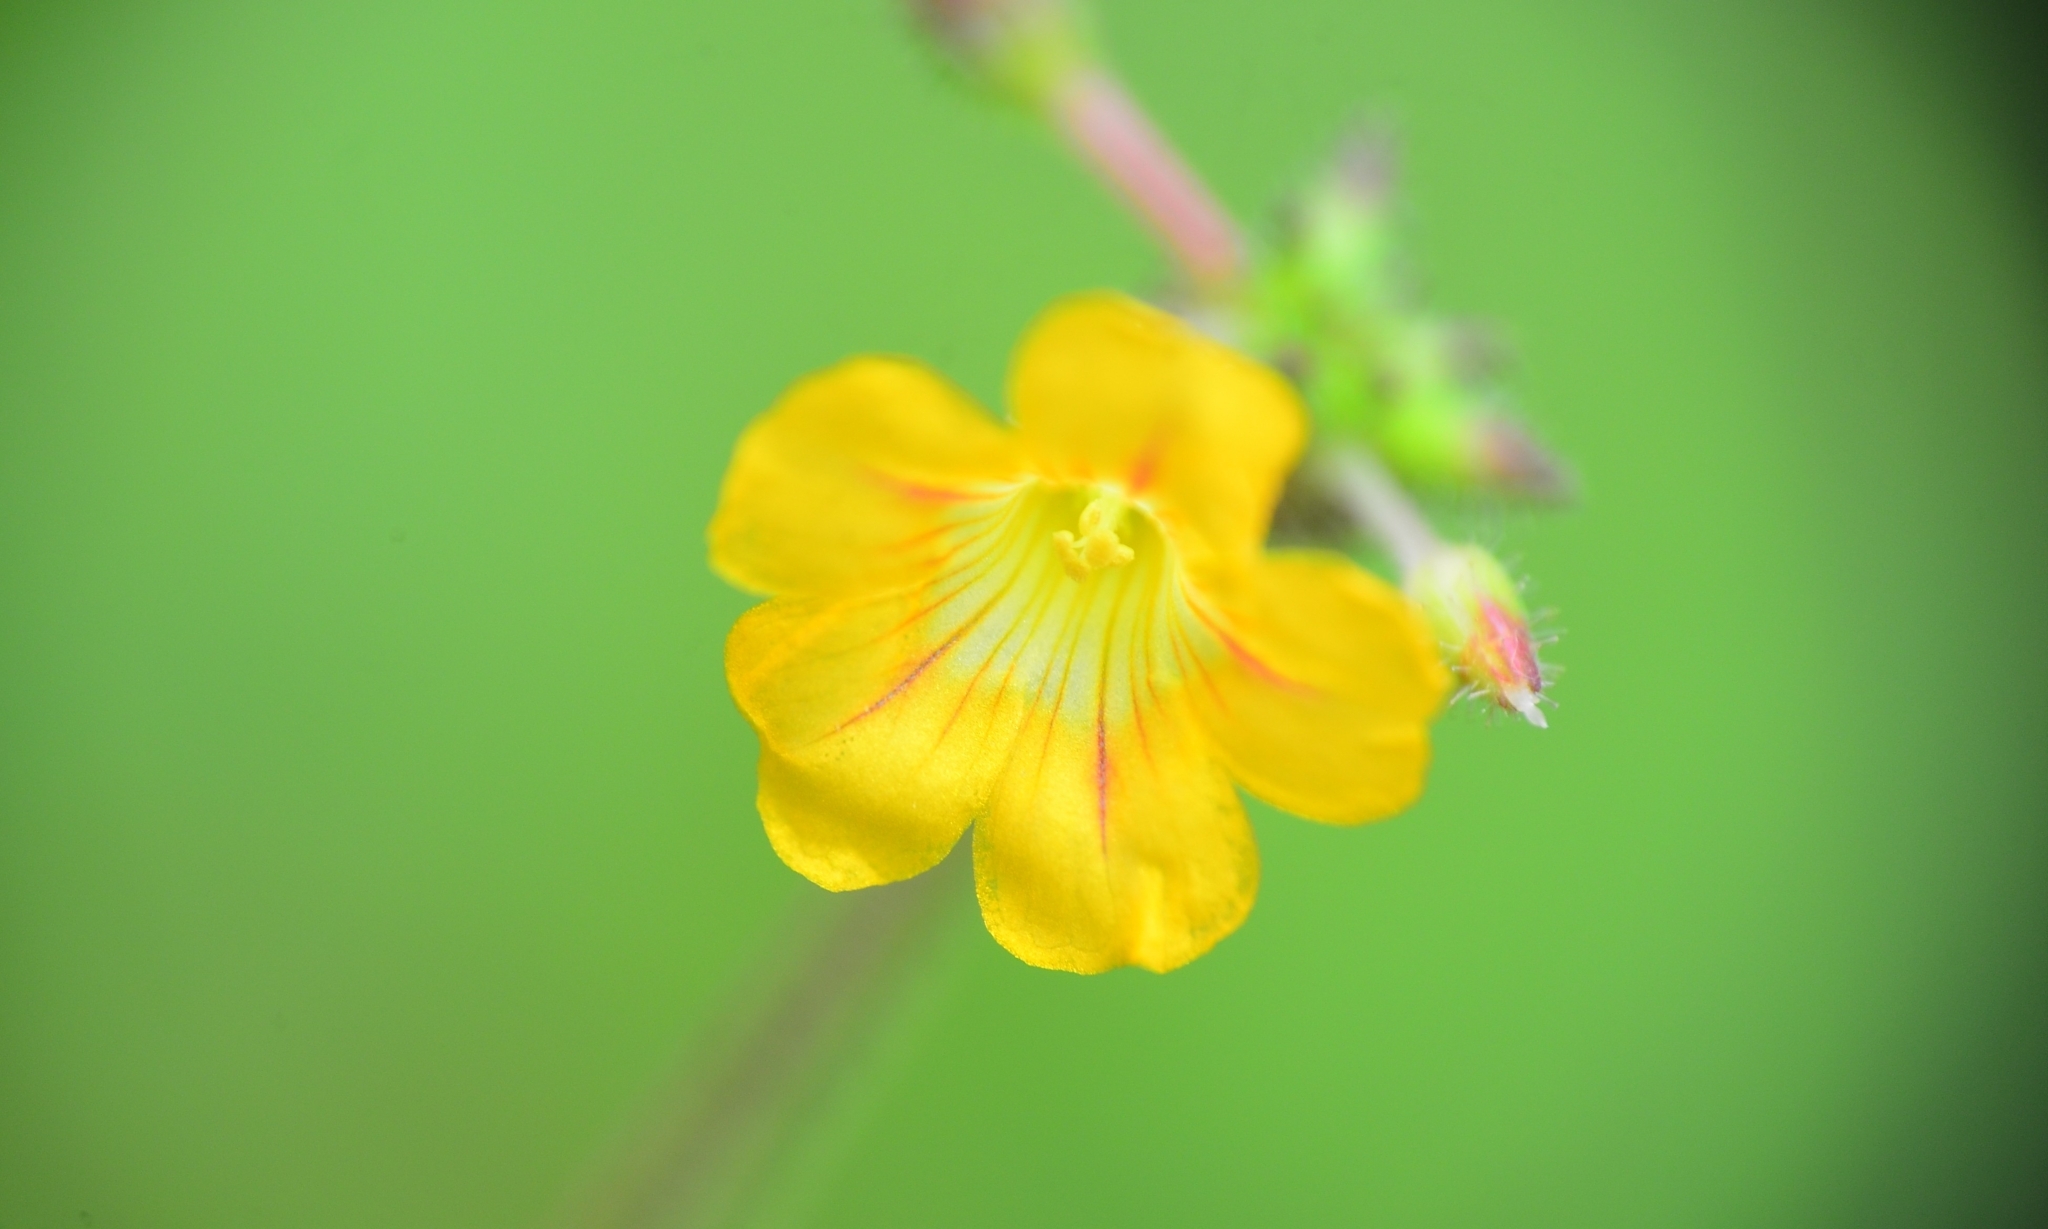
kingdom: Plantae
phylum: Tracheophyta
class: Magnoliopsida
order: Oxalidales
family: Oxalidaceae
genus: Biophytum
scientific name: Biophytum sensitivum
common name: Lifeplant
